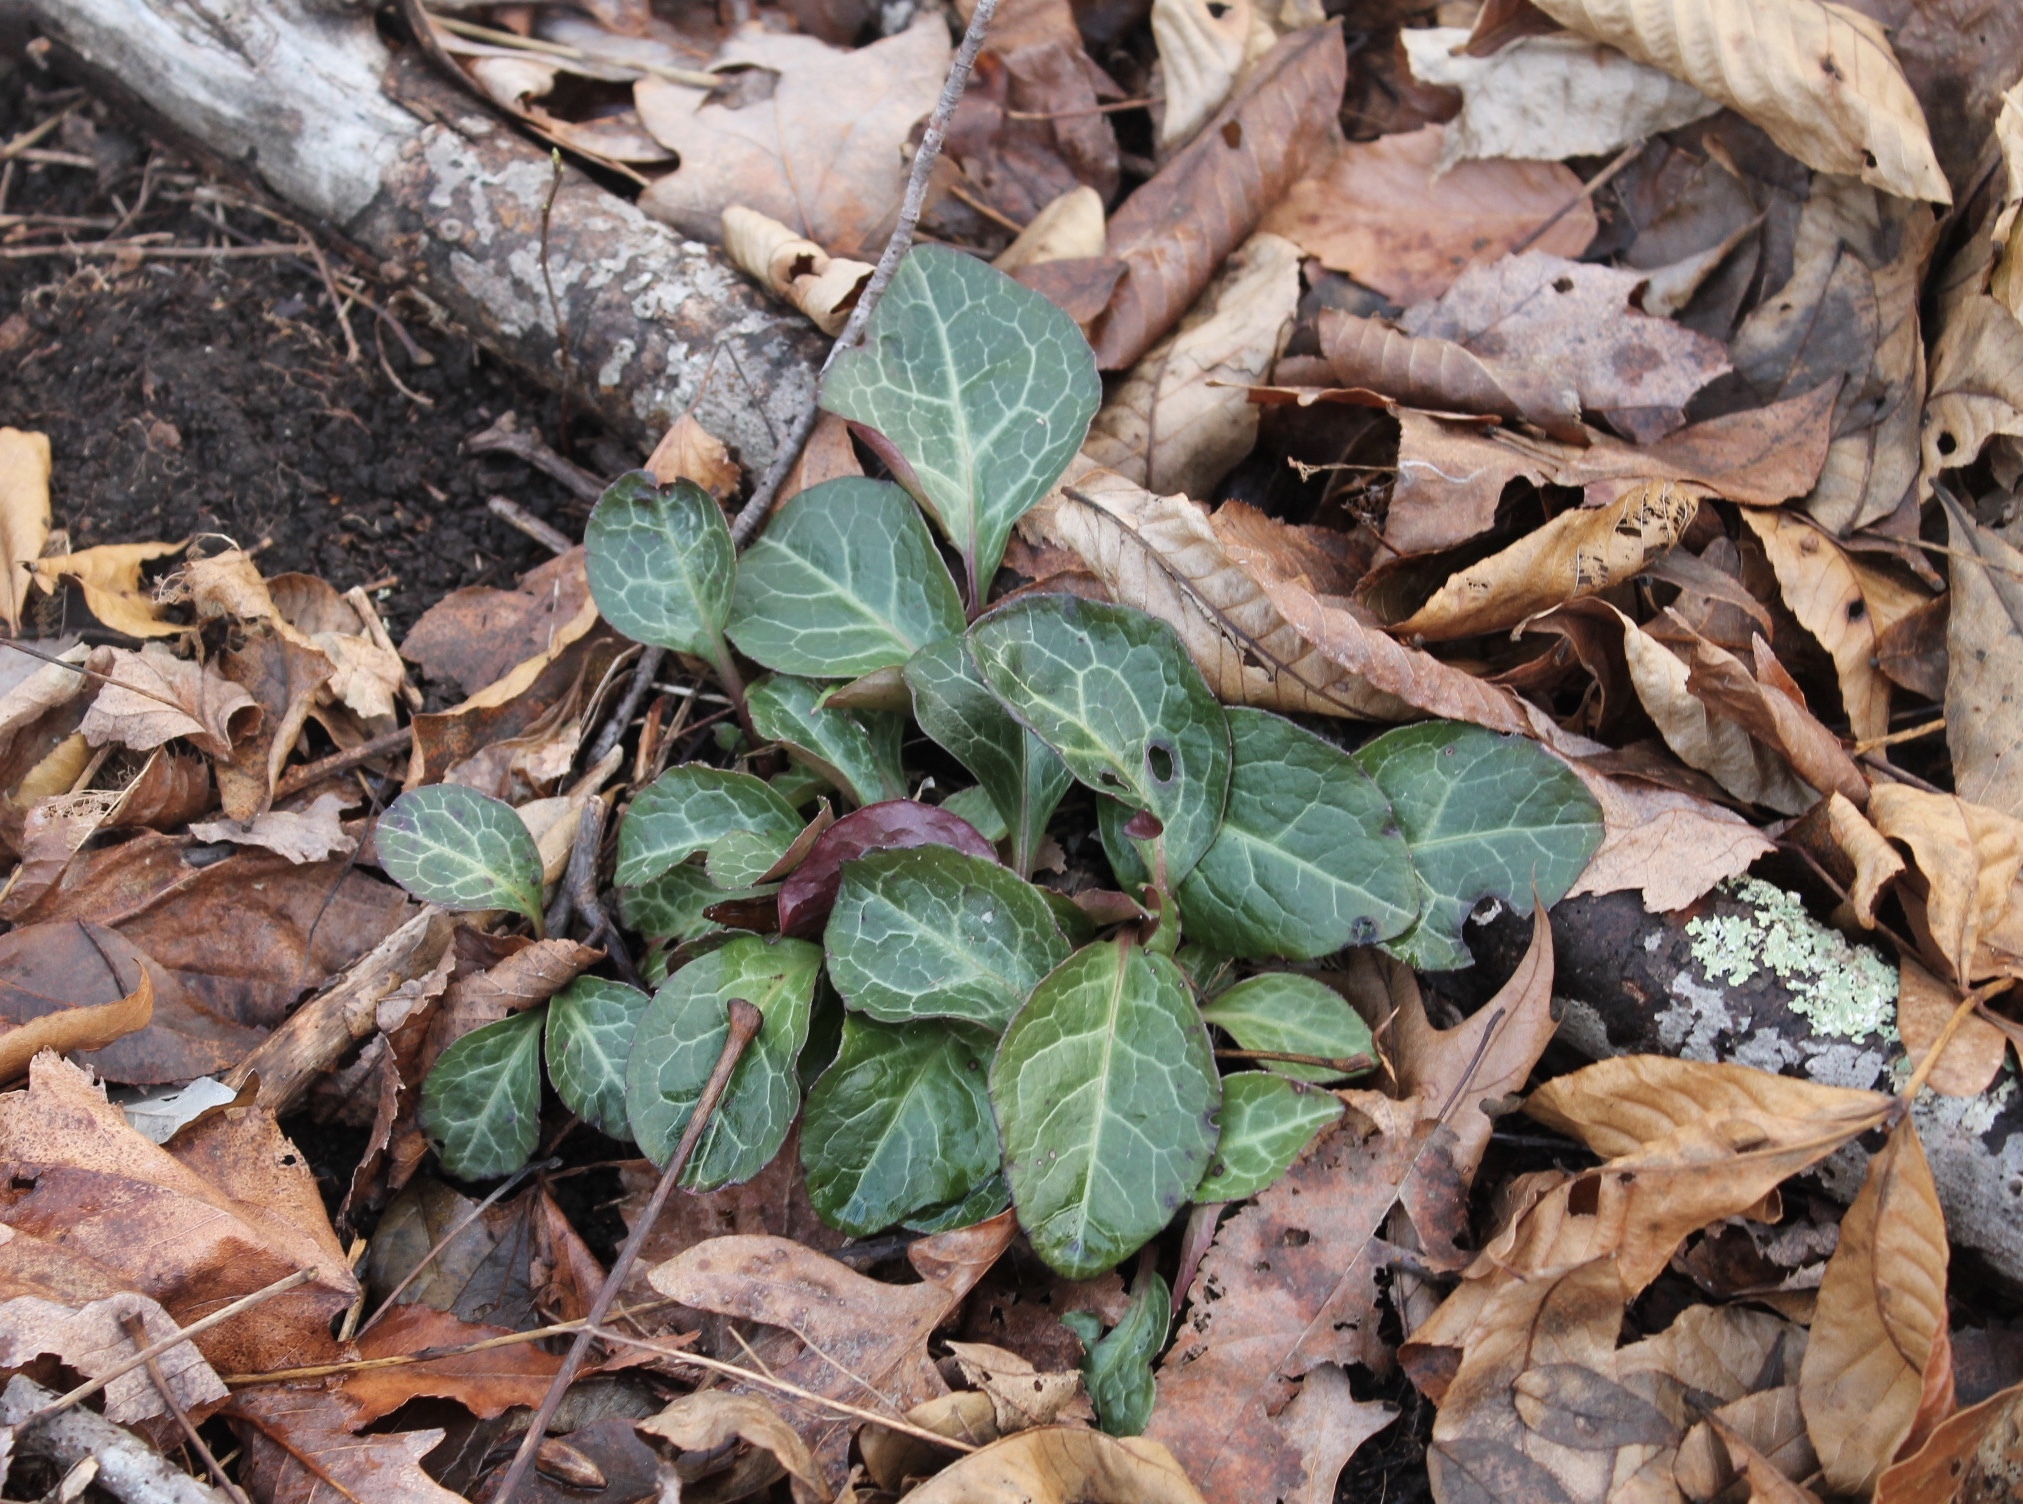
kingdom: Plantae
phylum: Tracheophyta
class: Magnoliopsida
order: Ericales
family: Ericaceae
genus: Pyrola
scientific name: Pyrola americana
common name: American wintergreen
